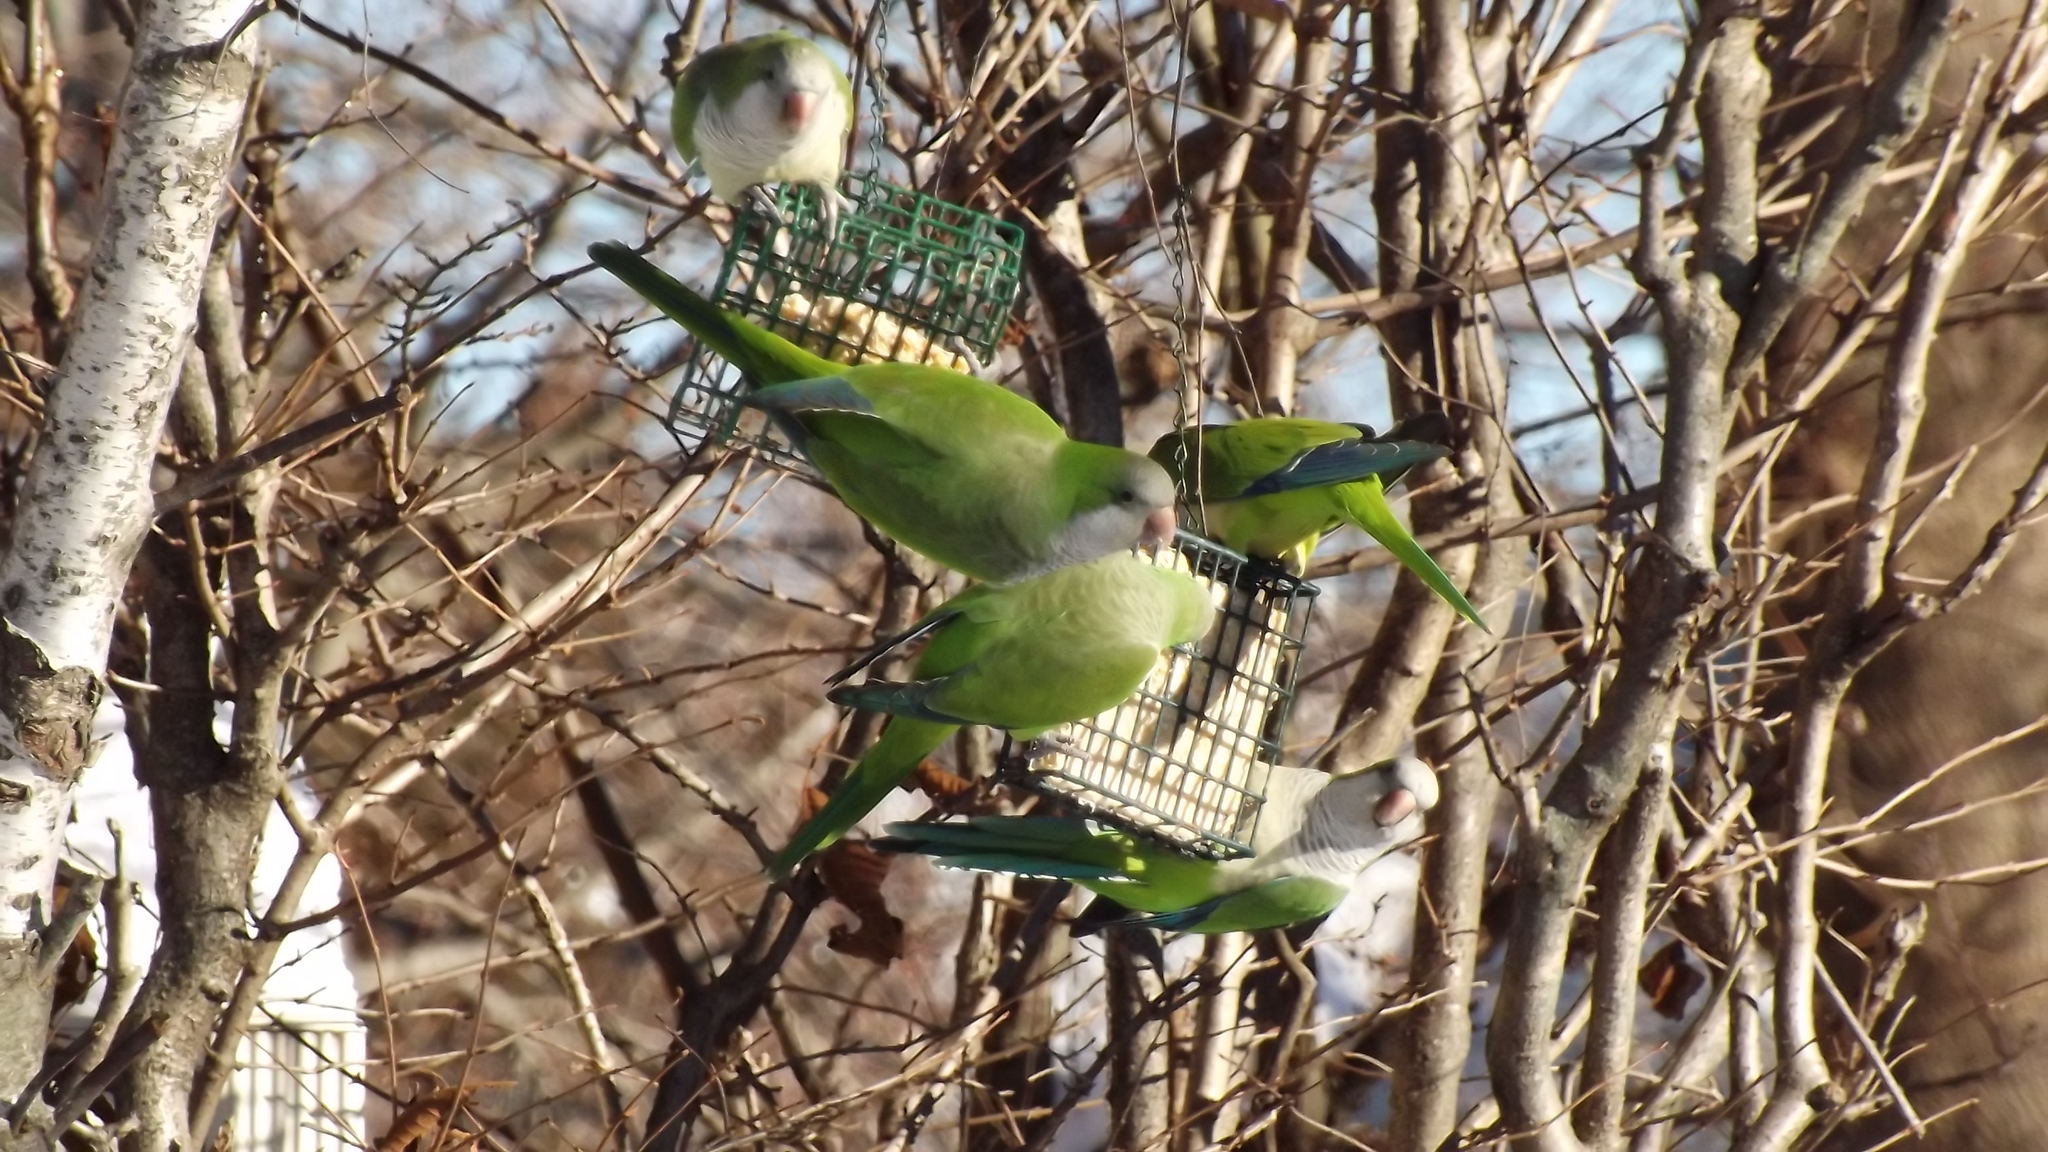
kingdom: Animalia
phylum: Chordata
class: Aves
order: Psittaciformes
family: Psittacidae
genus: Myiopsitta
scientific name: Myiopsitta monachus
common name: Monk parakeet
